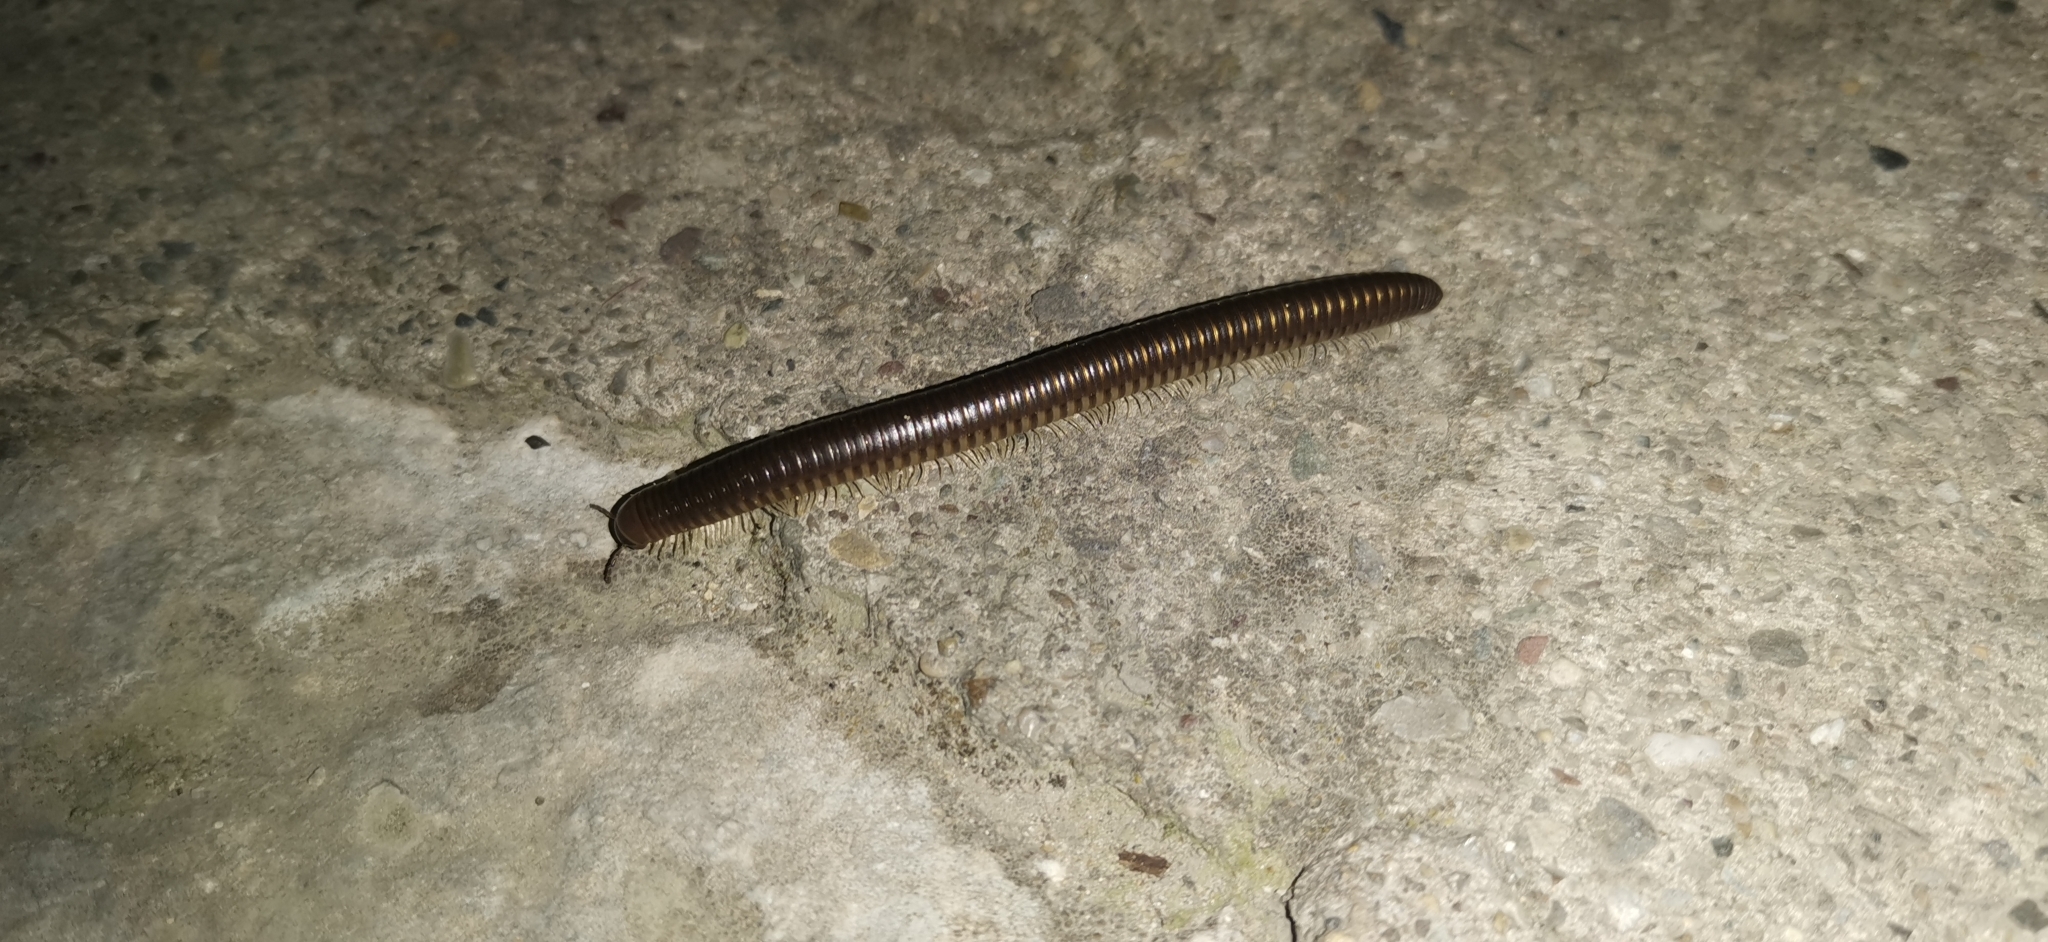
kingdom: Animalia
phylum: Arthropoda
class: Diplopoda
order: Julida
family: Julidae
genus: Pachyiulus
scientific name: Pachyiulus flavipes
